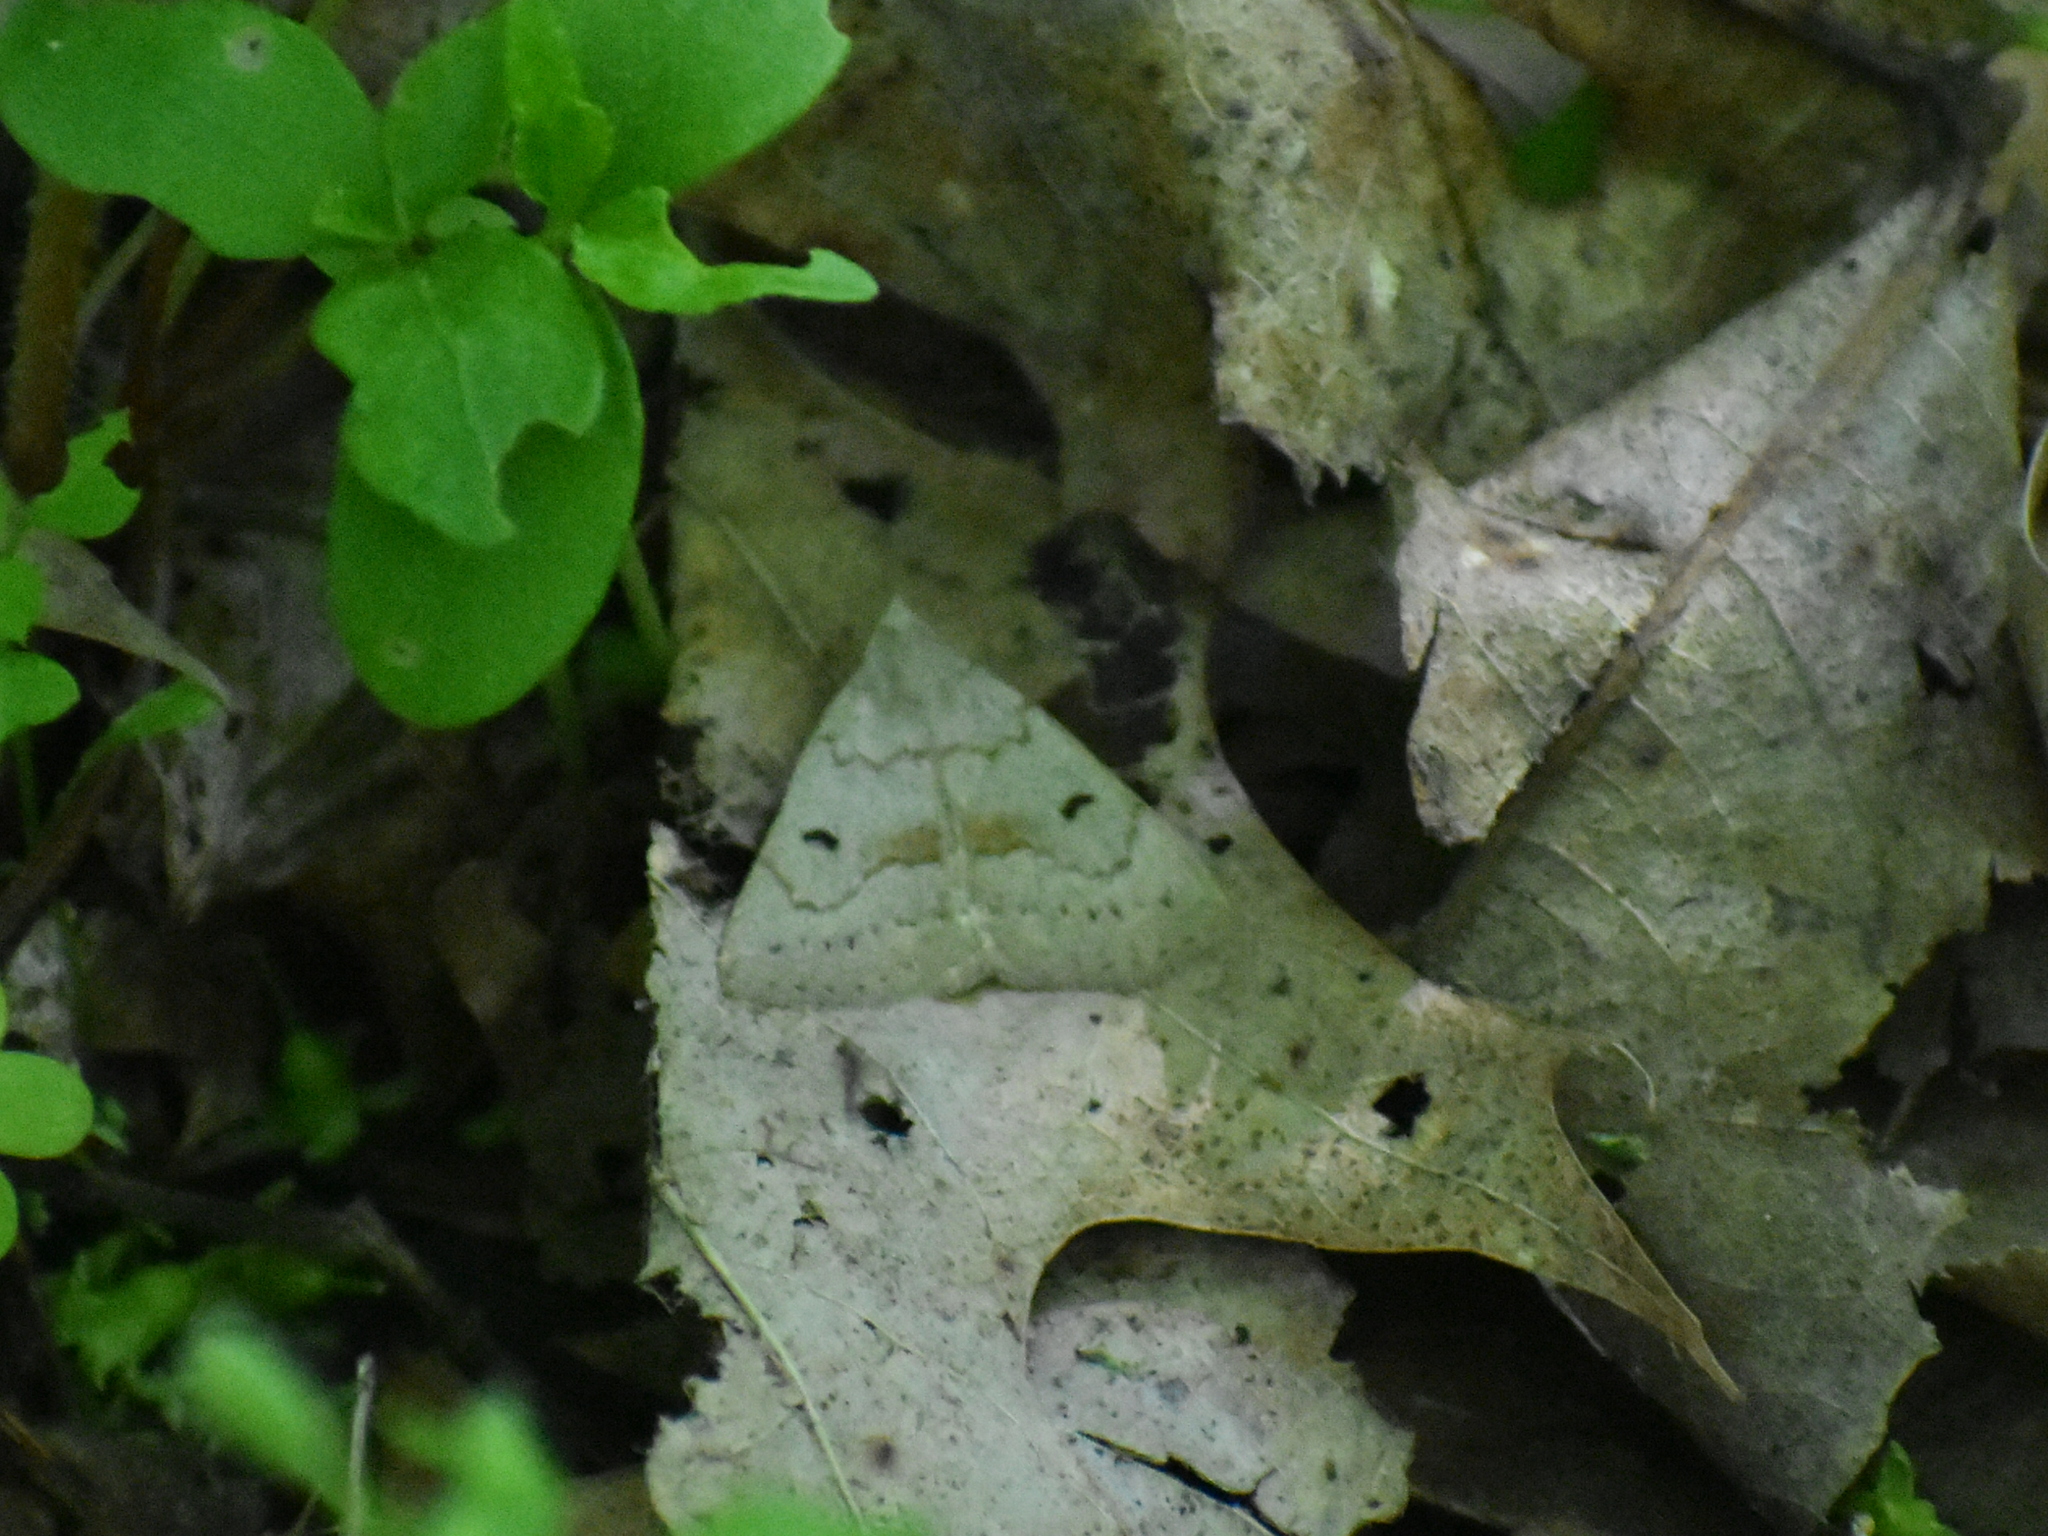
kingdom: Animalia
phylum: Arthropoda
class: Insecta
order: Lepidoptera
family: Erebidae
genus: Macrochilo
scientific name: Macrochilo morbidalis
